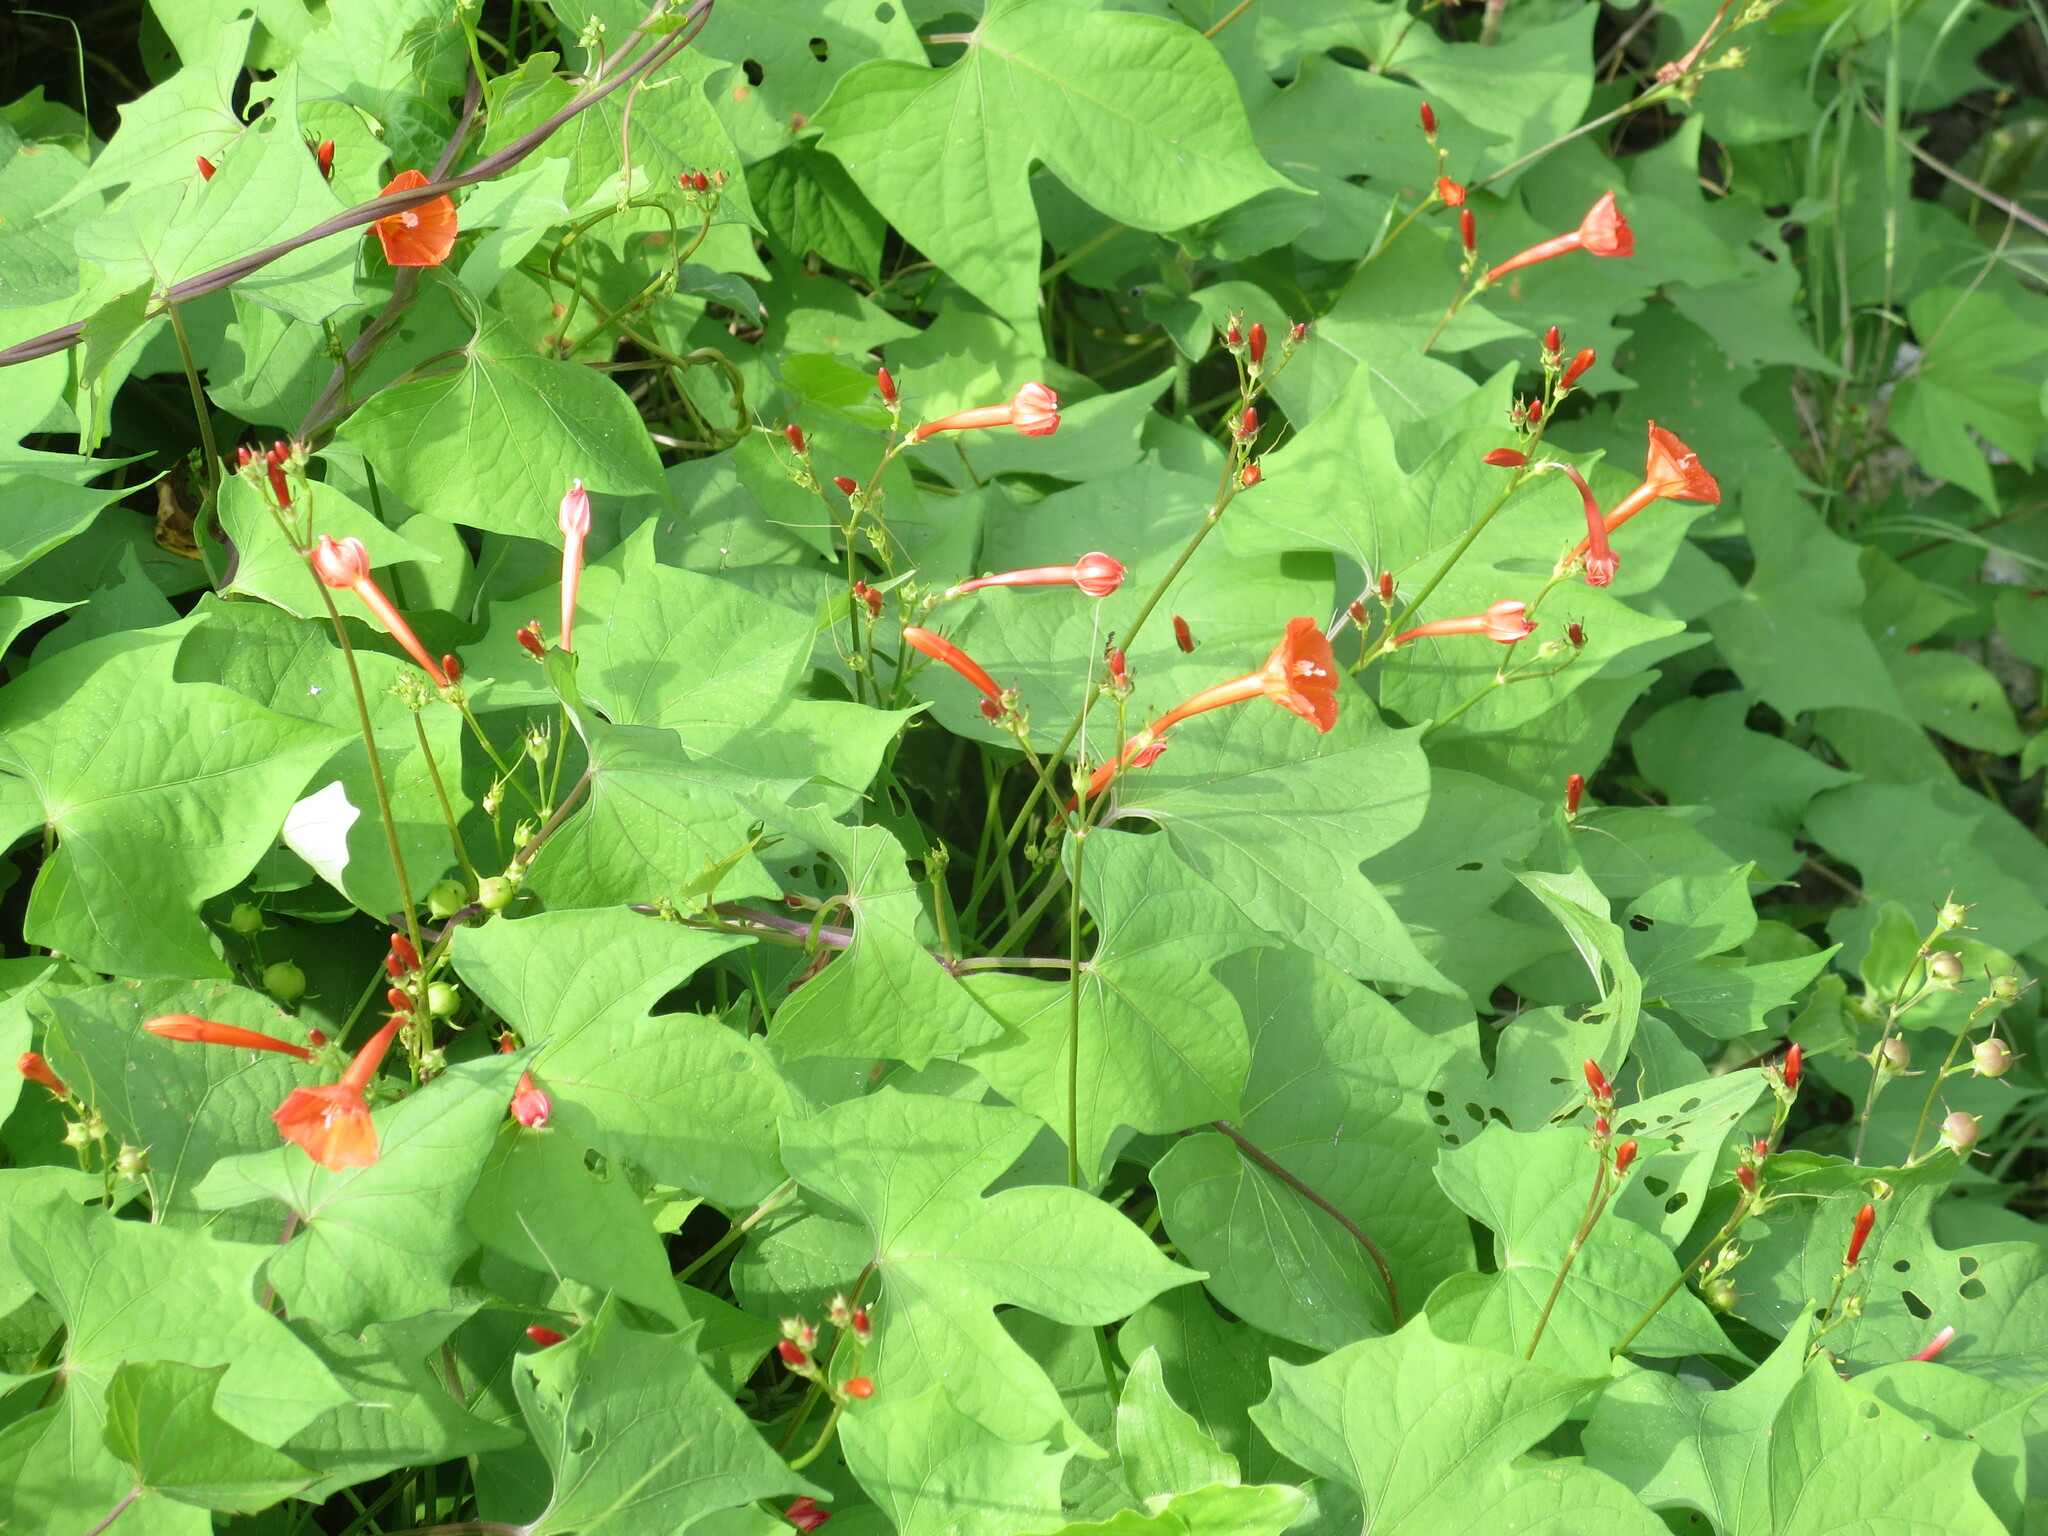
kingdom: Plantae
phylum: Tracheophyta
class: Magnoliopsida
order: Solanales
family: Convolvulaceae
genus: Ipomoea
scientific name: Ipomoea hederifolia
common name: Ivy-leaf morning-glory
